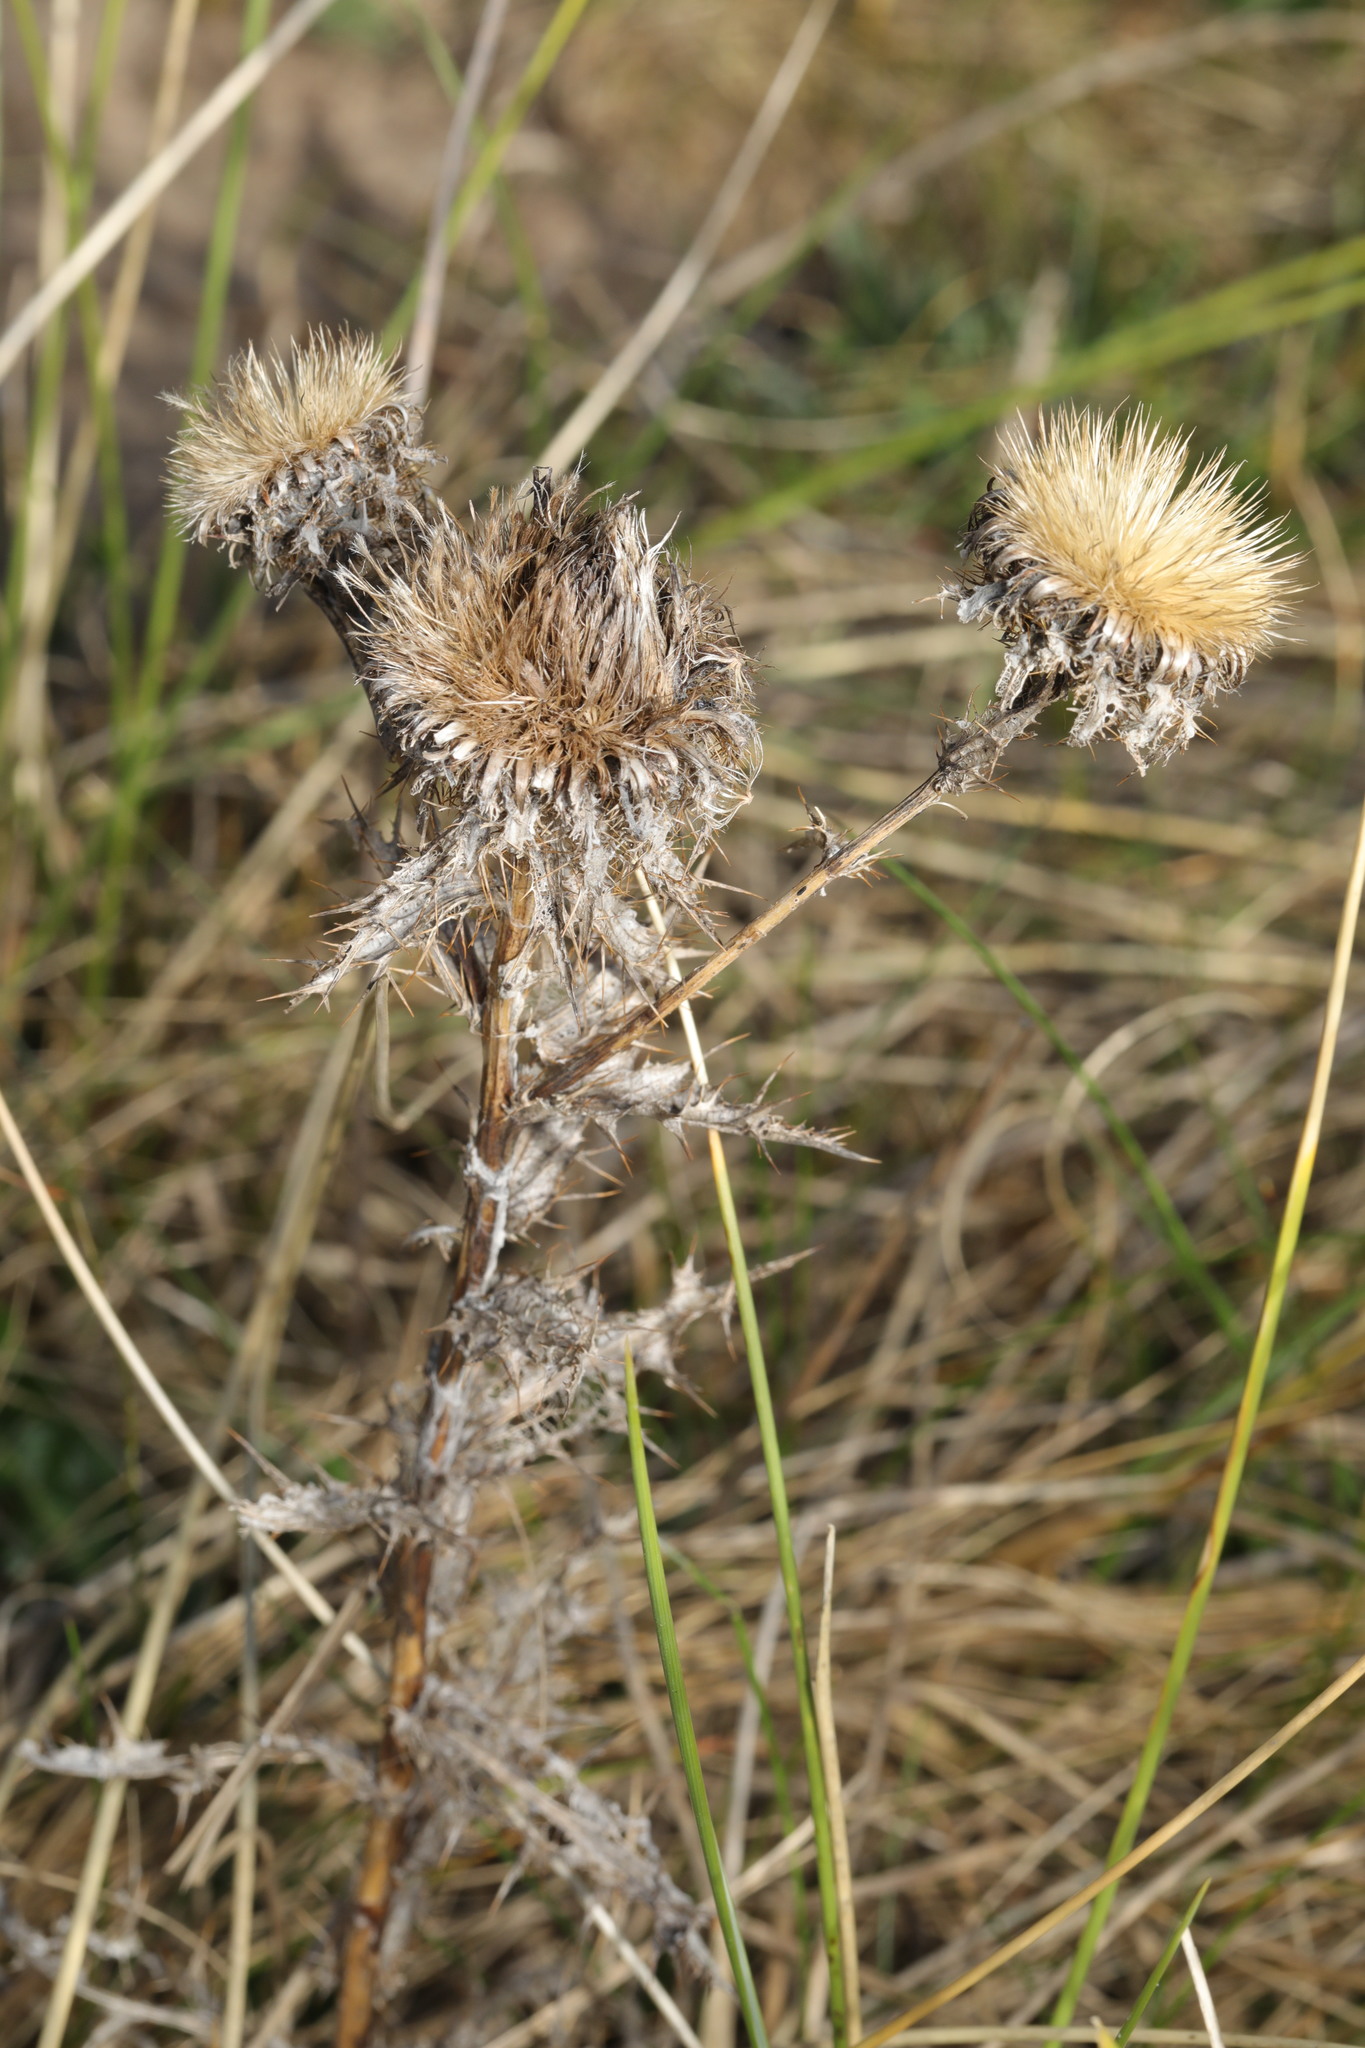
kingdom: Plantae
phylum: Tracheophyta
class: Magnoliopsida
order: Asterales
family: Asteraceae
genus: Carlina
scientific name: Carlina vulgaris
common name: Carline thistle
